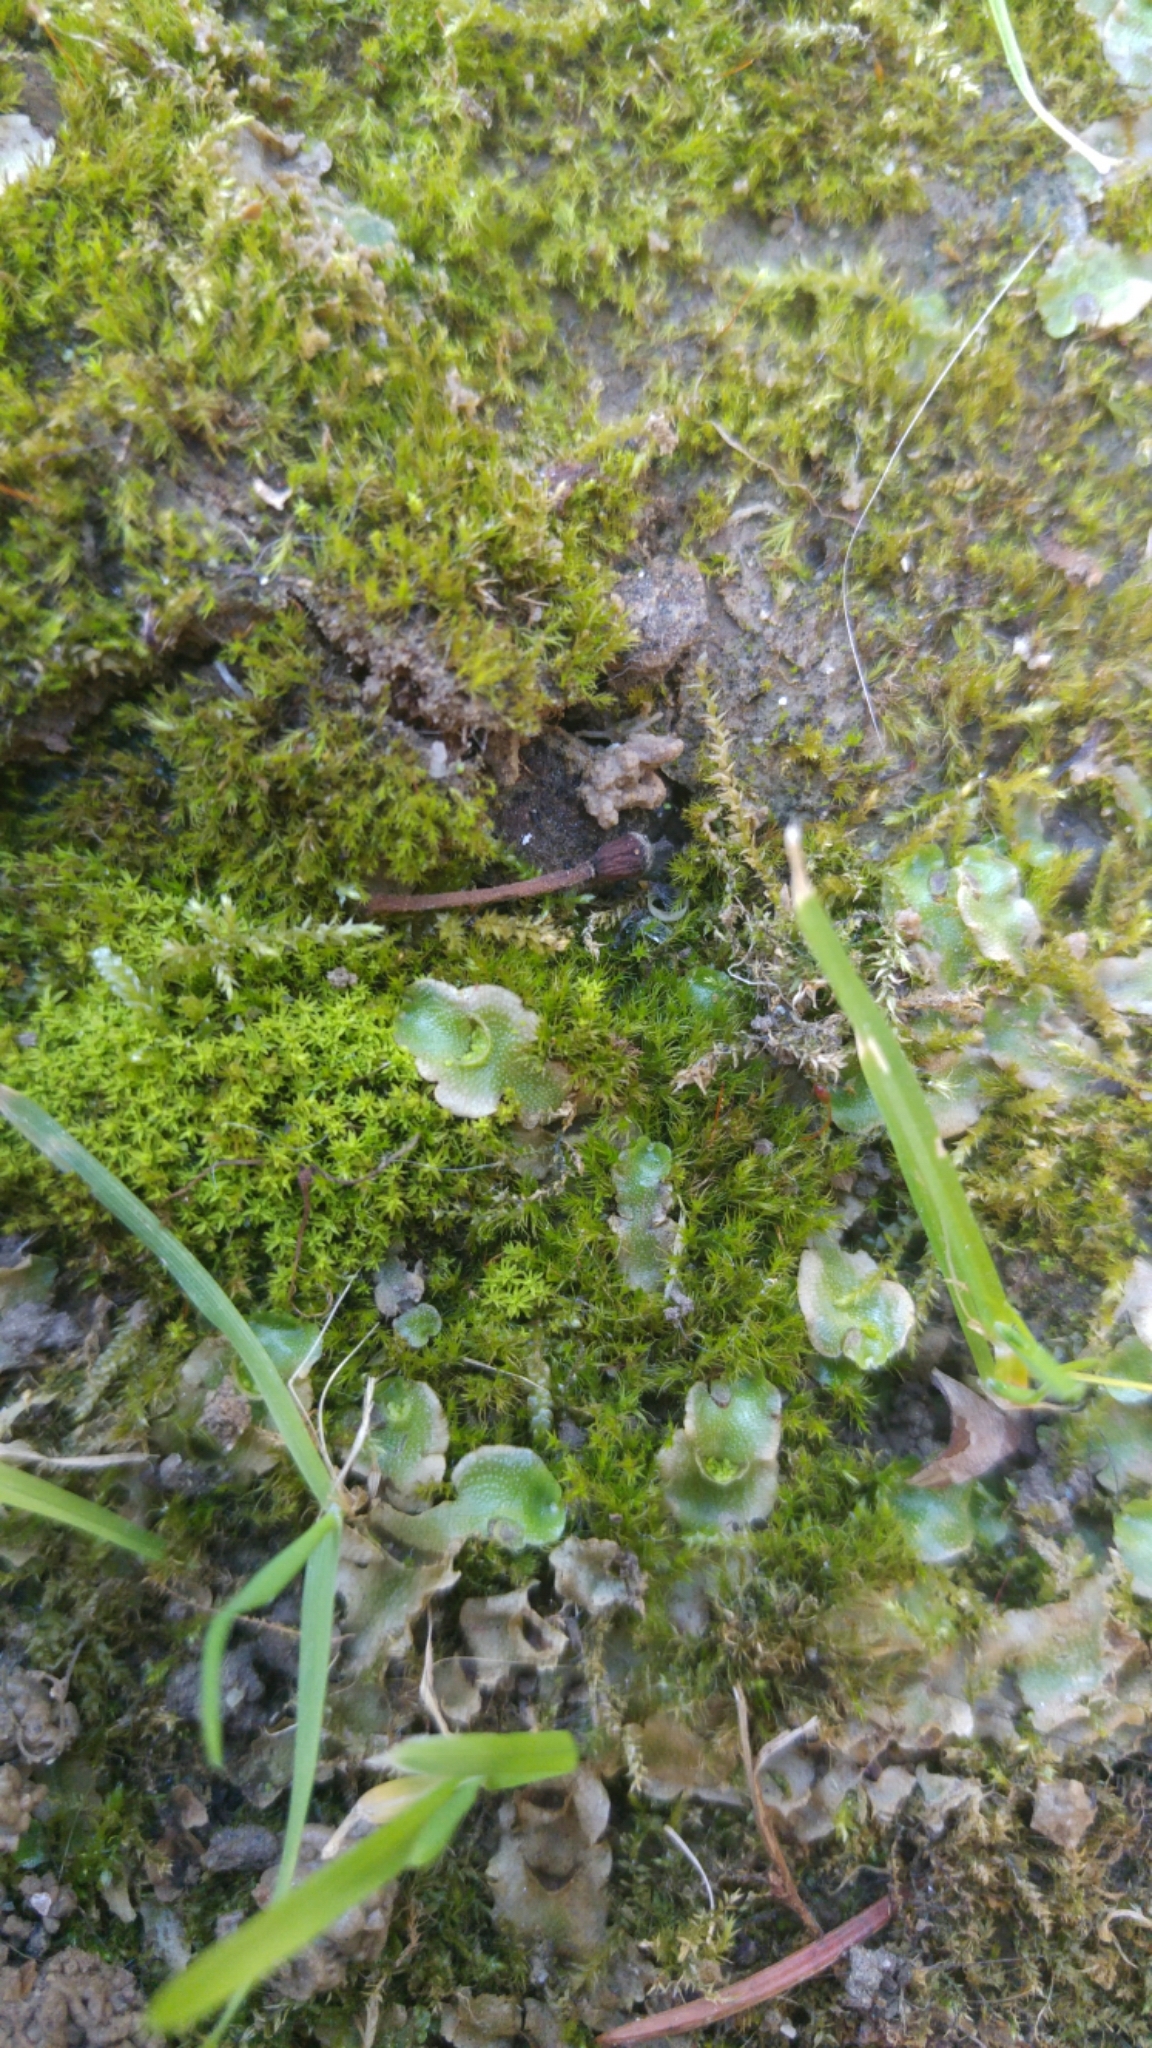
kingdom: Plantae
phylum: Marchantiophyta
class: Marchantiopsida
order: Lunulariales
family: Lunulariaceae
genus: Lunularia
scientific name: Lunularia cruciata
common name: Crescent-cup liverwort
